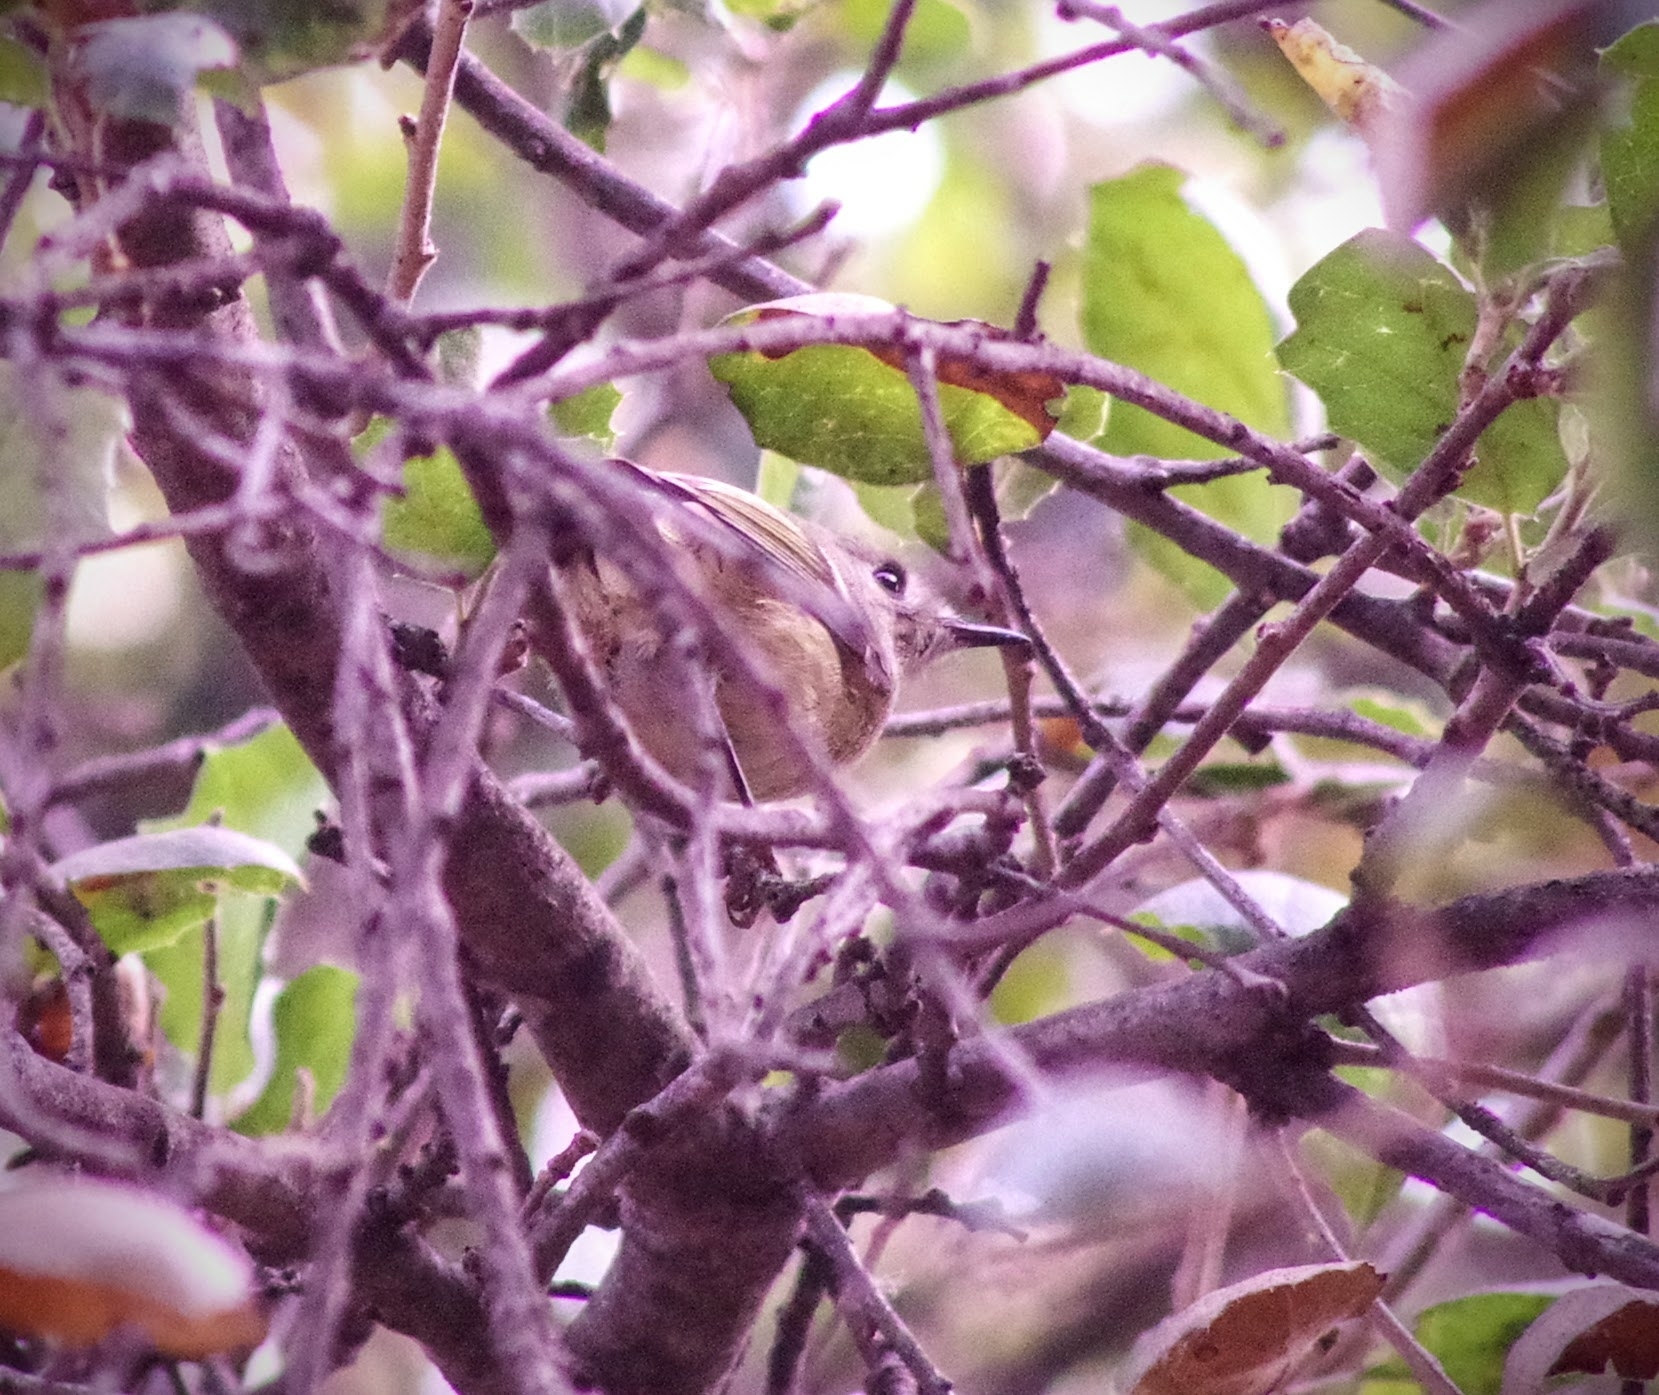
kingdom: Animalia
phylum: Chordata
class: Aves
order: Passeriformes
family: Regulidae
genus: Regulus
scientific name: Regulus calendula
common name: Ruby-crowned kinglet
